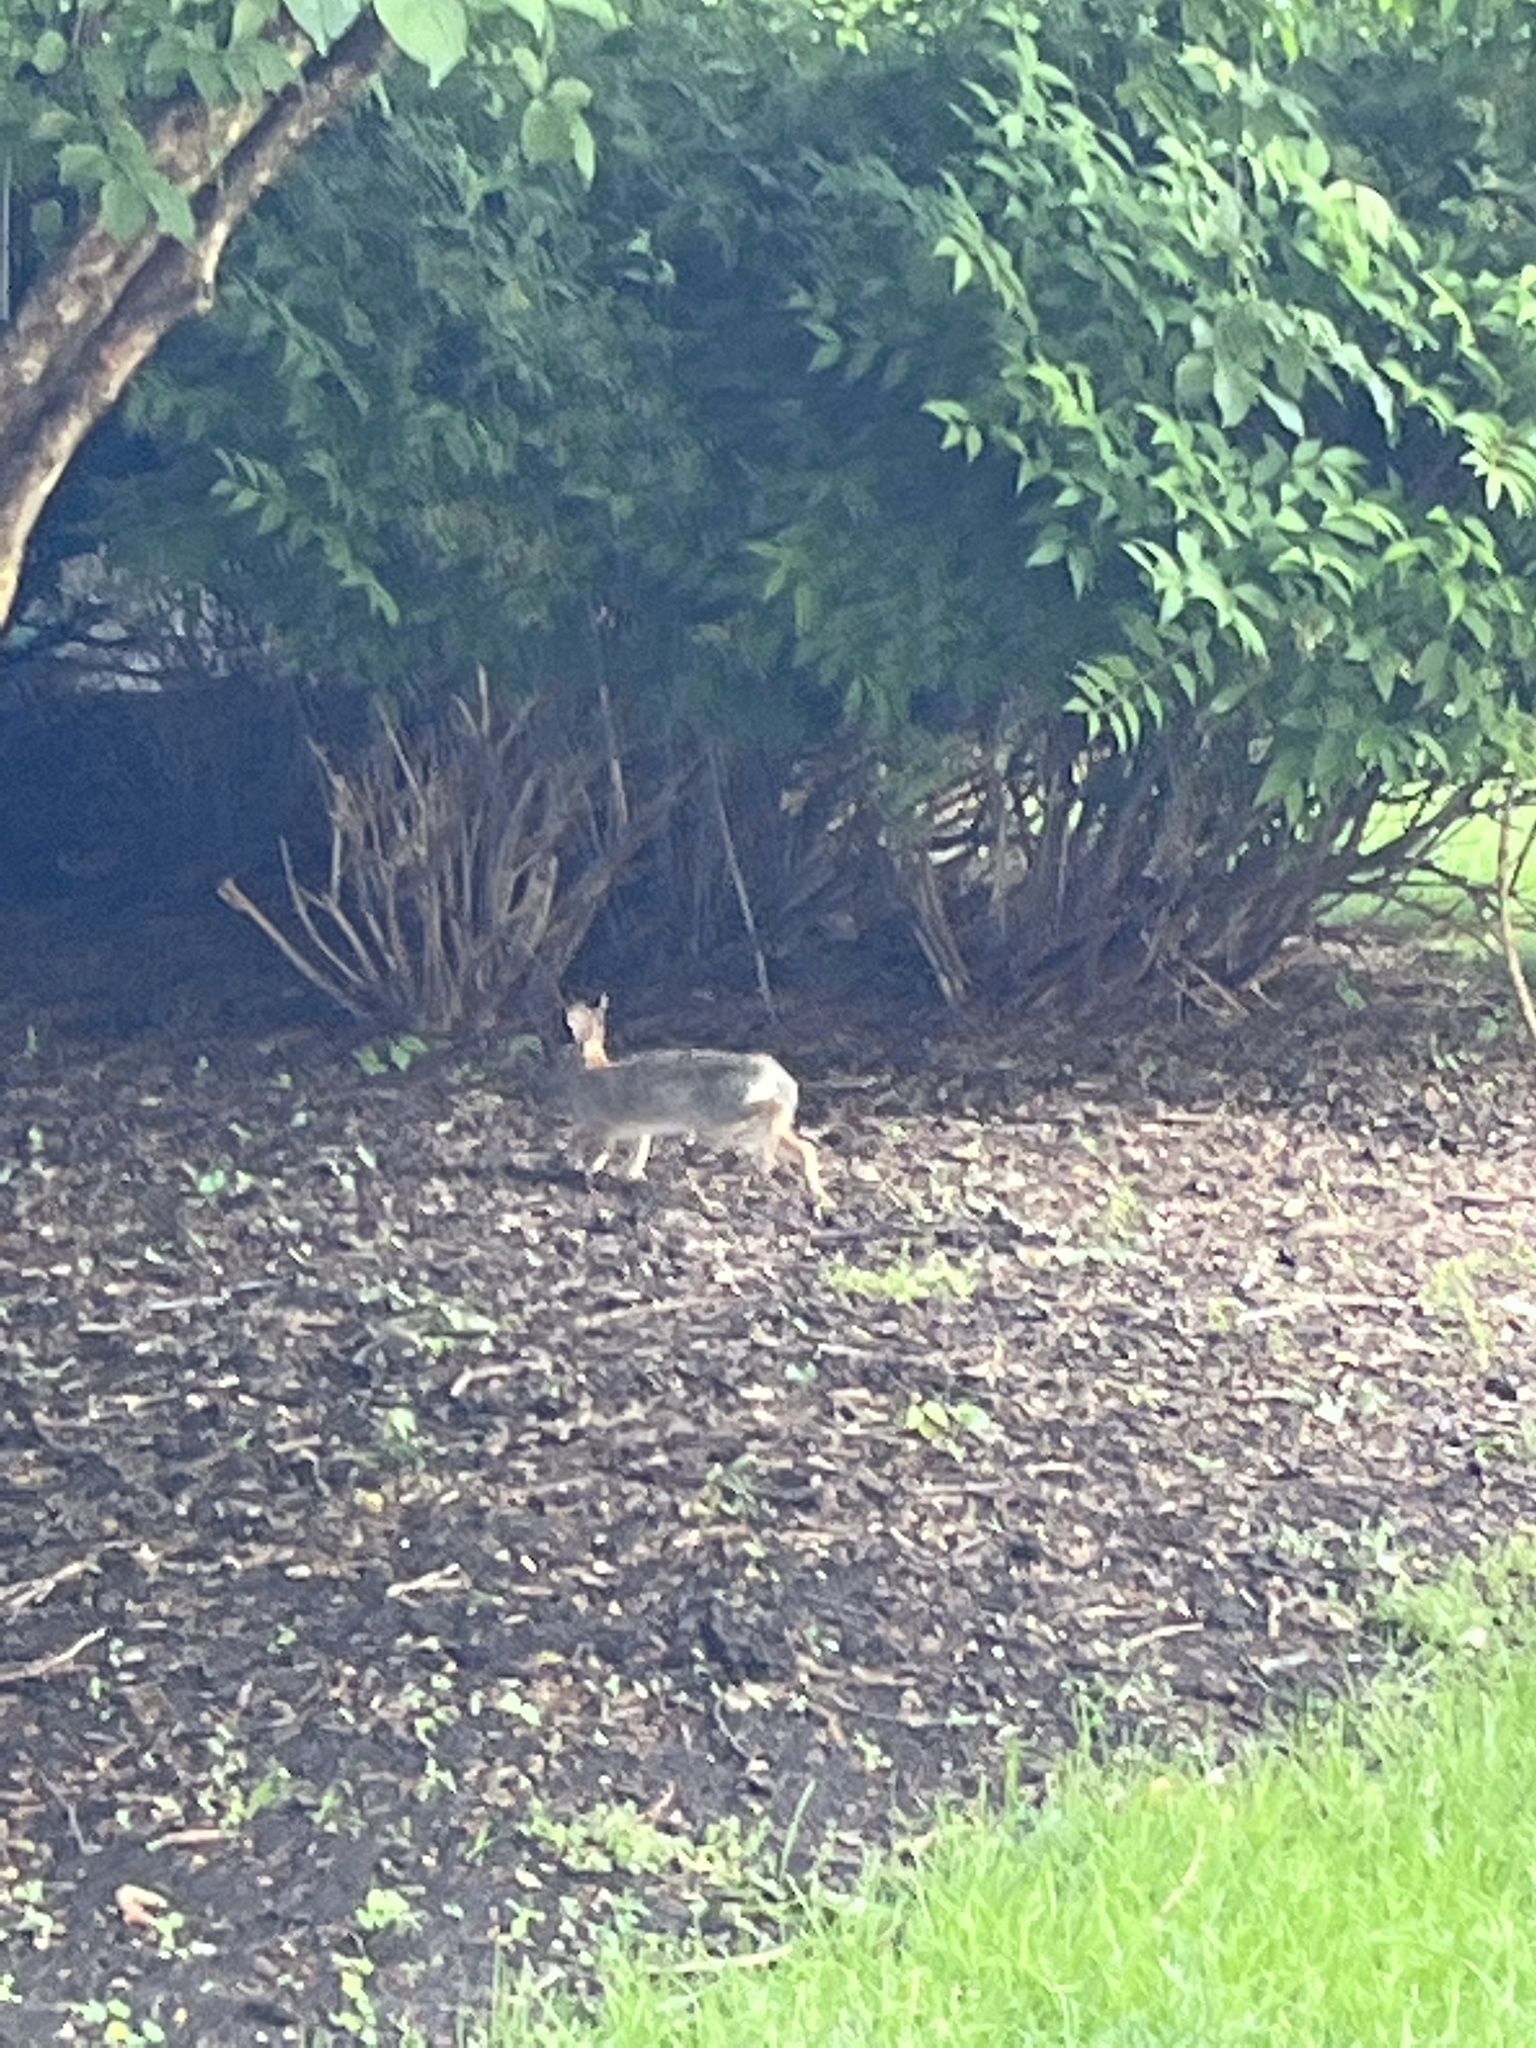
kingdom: Animalia
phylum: Chordata
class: Mammalia
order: Lagomorpha
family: Leporidae
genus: Sylvilagus
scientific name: Sylvilagus floridanus
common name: Eastern cottontail
